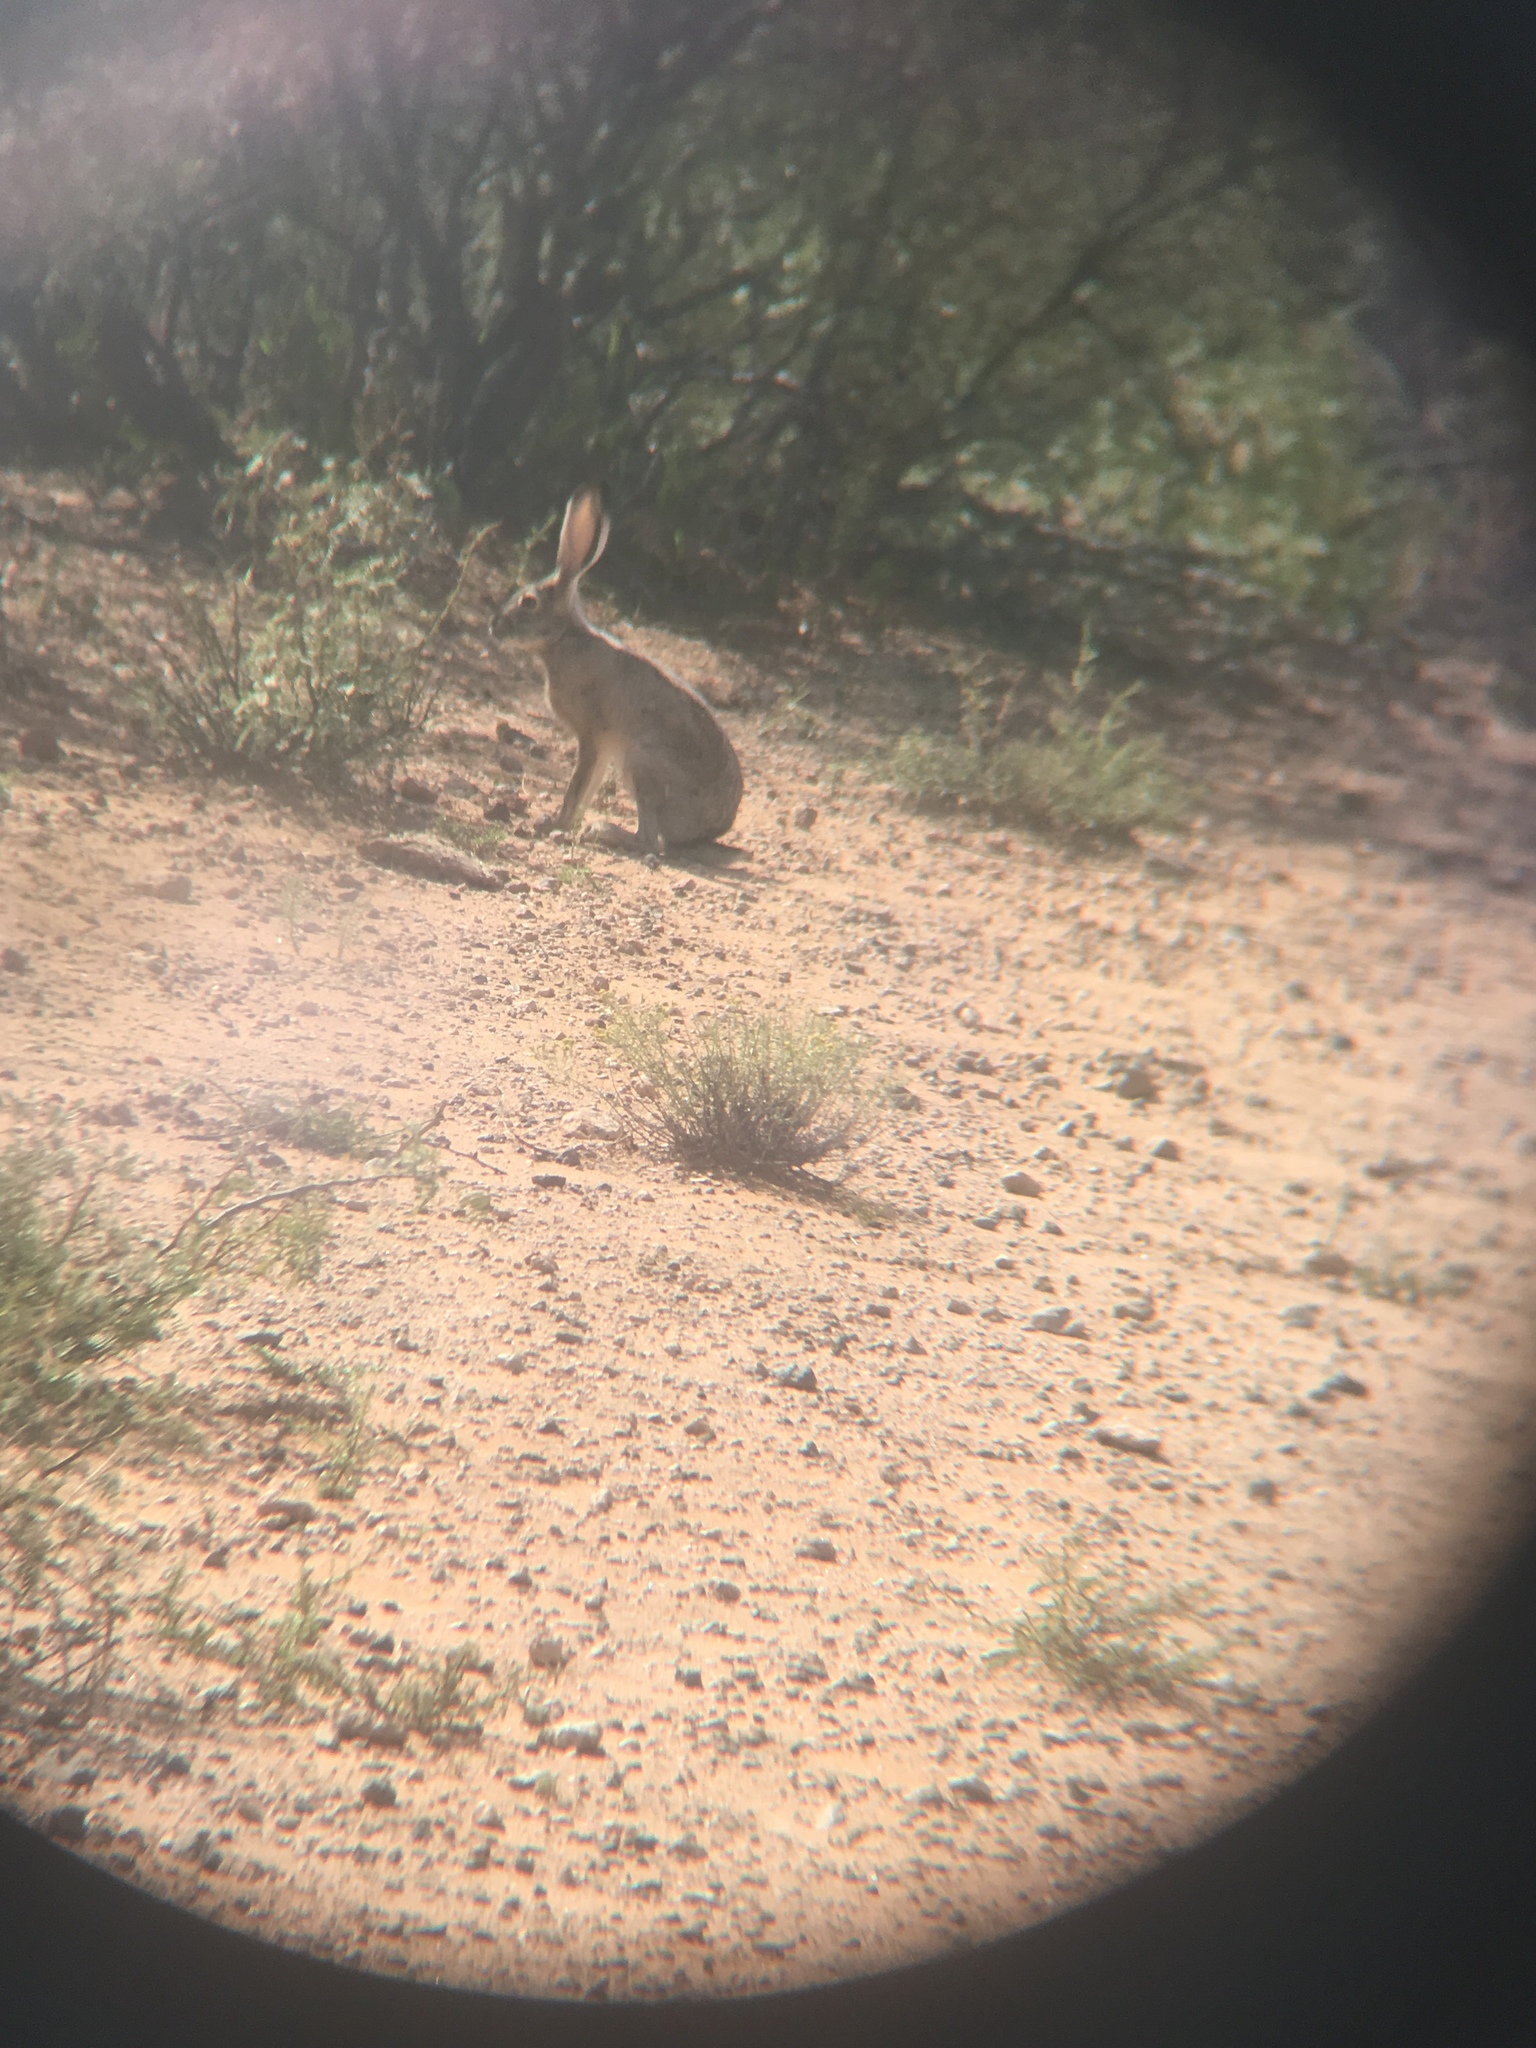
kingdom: Animalia
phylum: Chordata
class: Mammalia
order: Lagomorpha
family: Leporidae
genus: Lepus
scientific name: Lepus californicus
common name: Black-tailed jackrabbit
